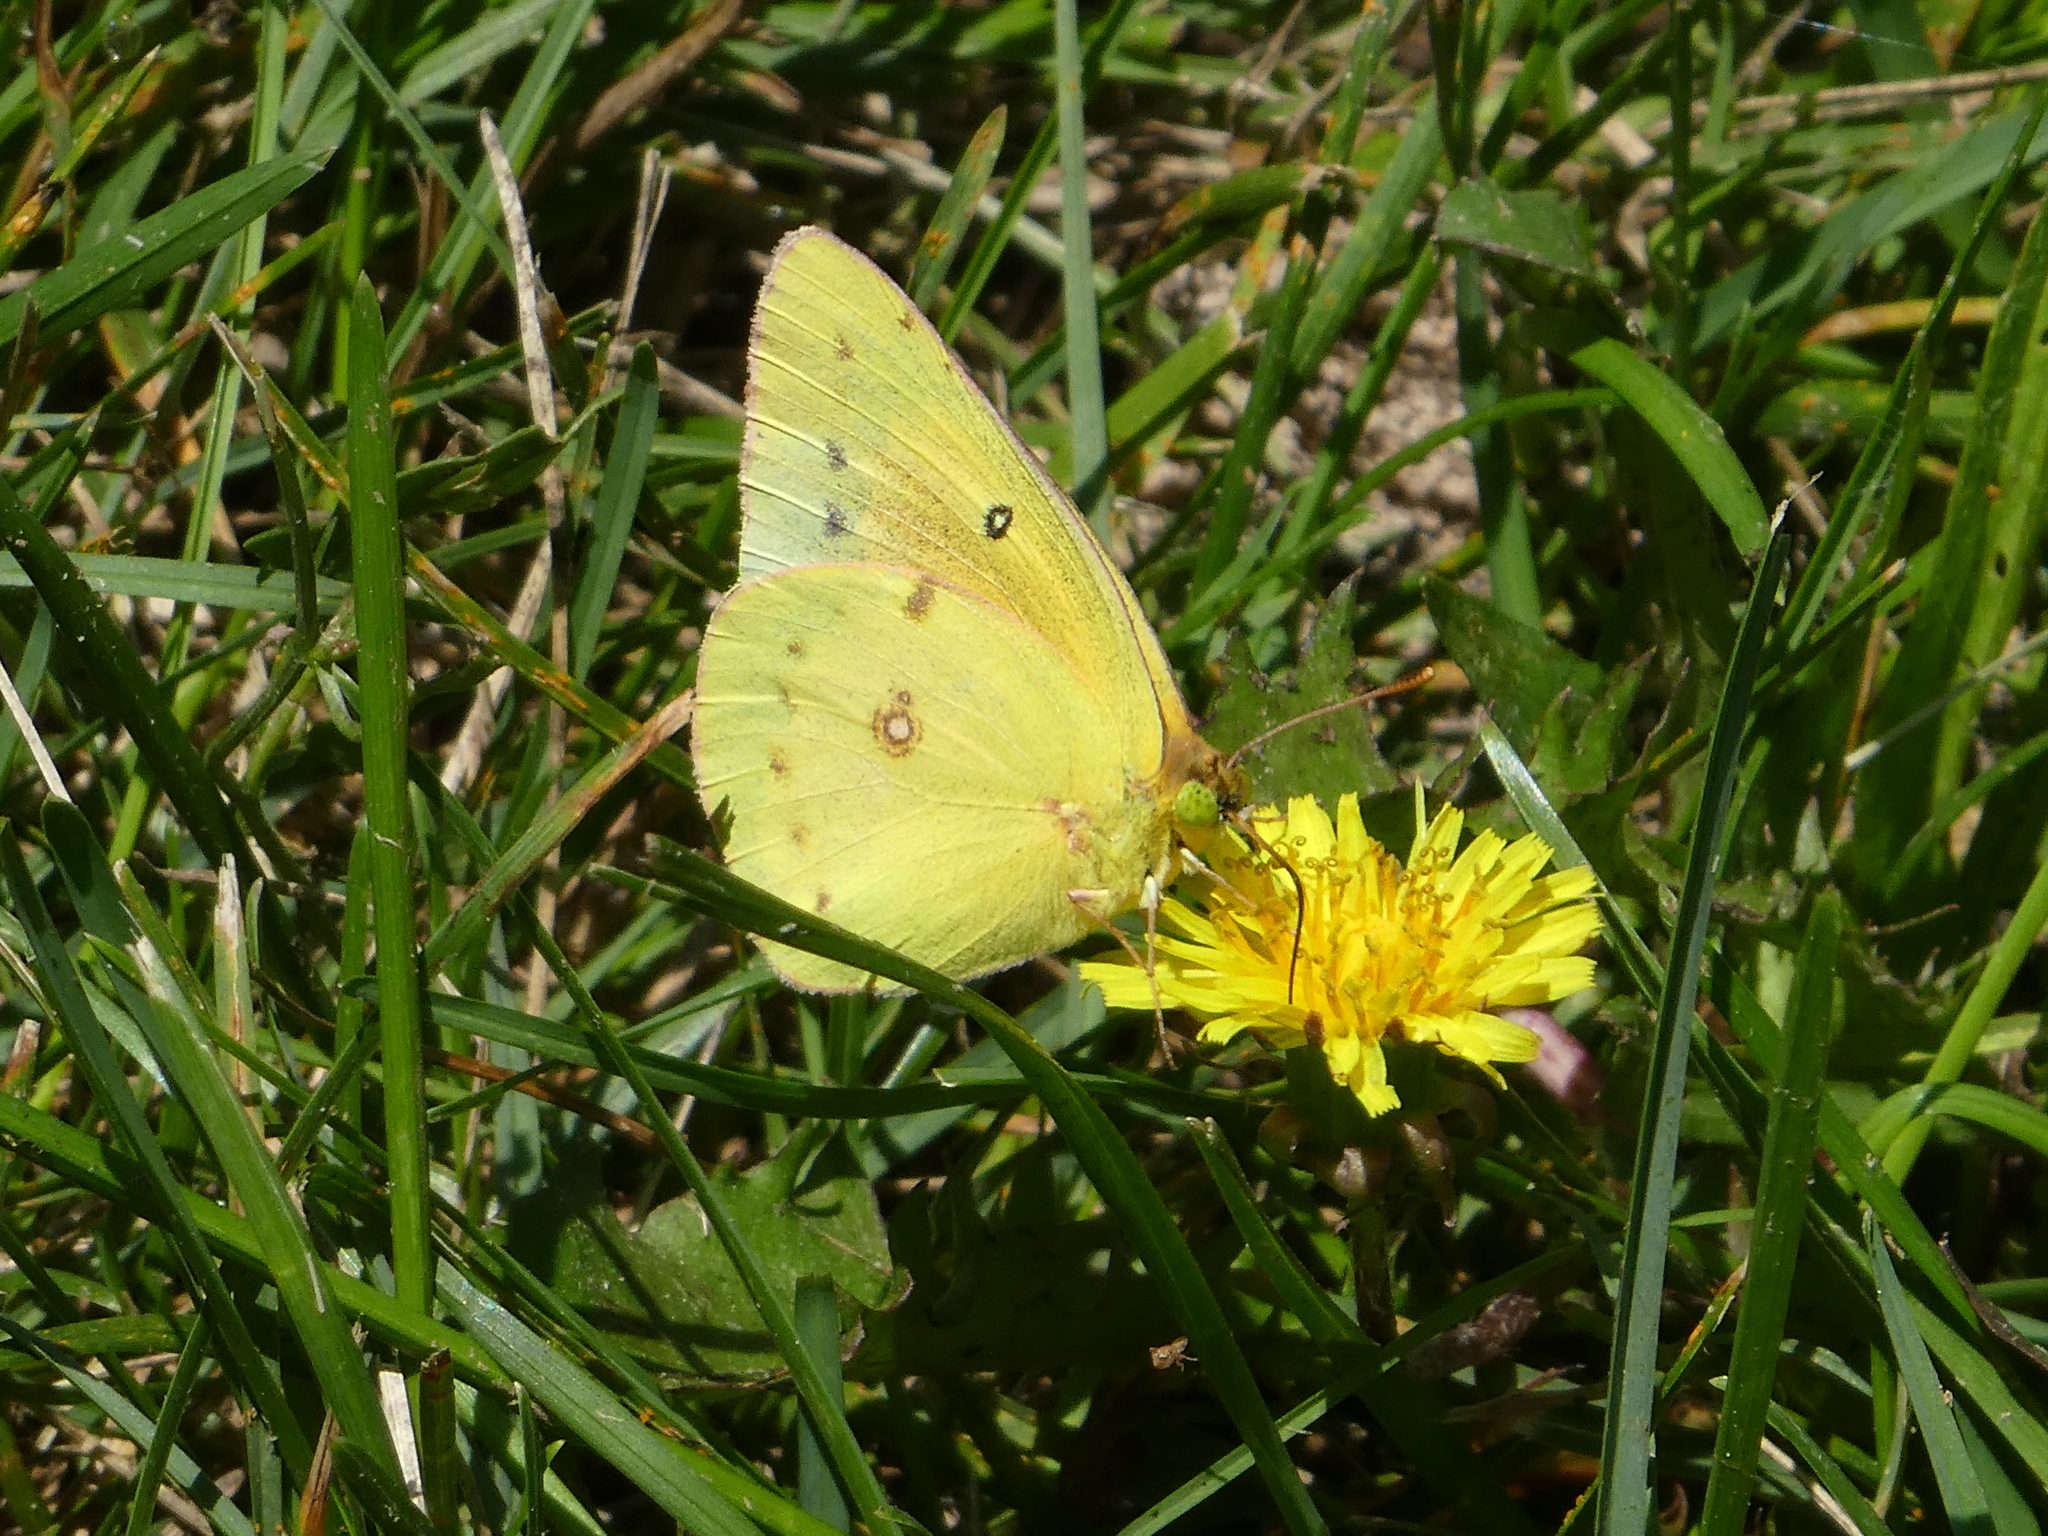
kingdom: Animalia
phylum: Arthropoda
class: Insecta
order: Lepidoptera
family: Pieridae
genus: Colias
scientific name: Colias eurytheme
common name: Alfalfa butterfly
